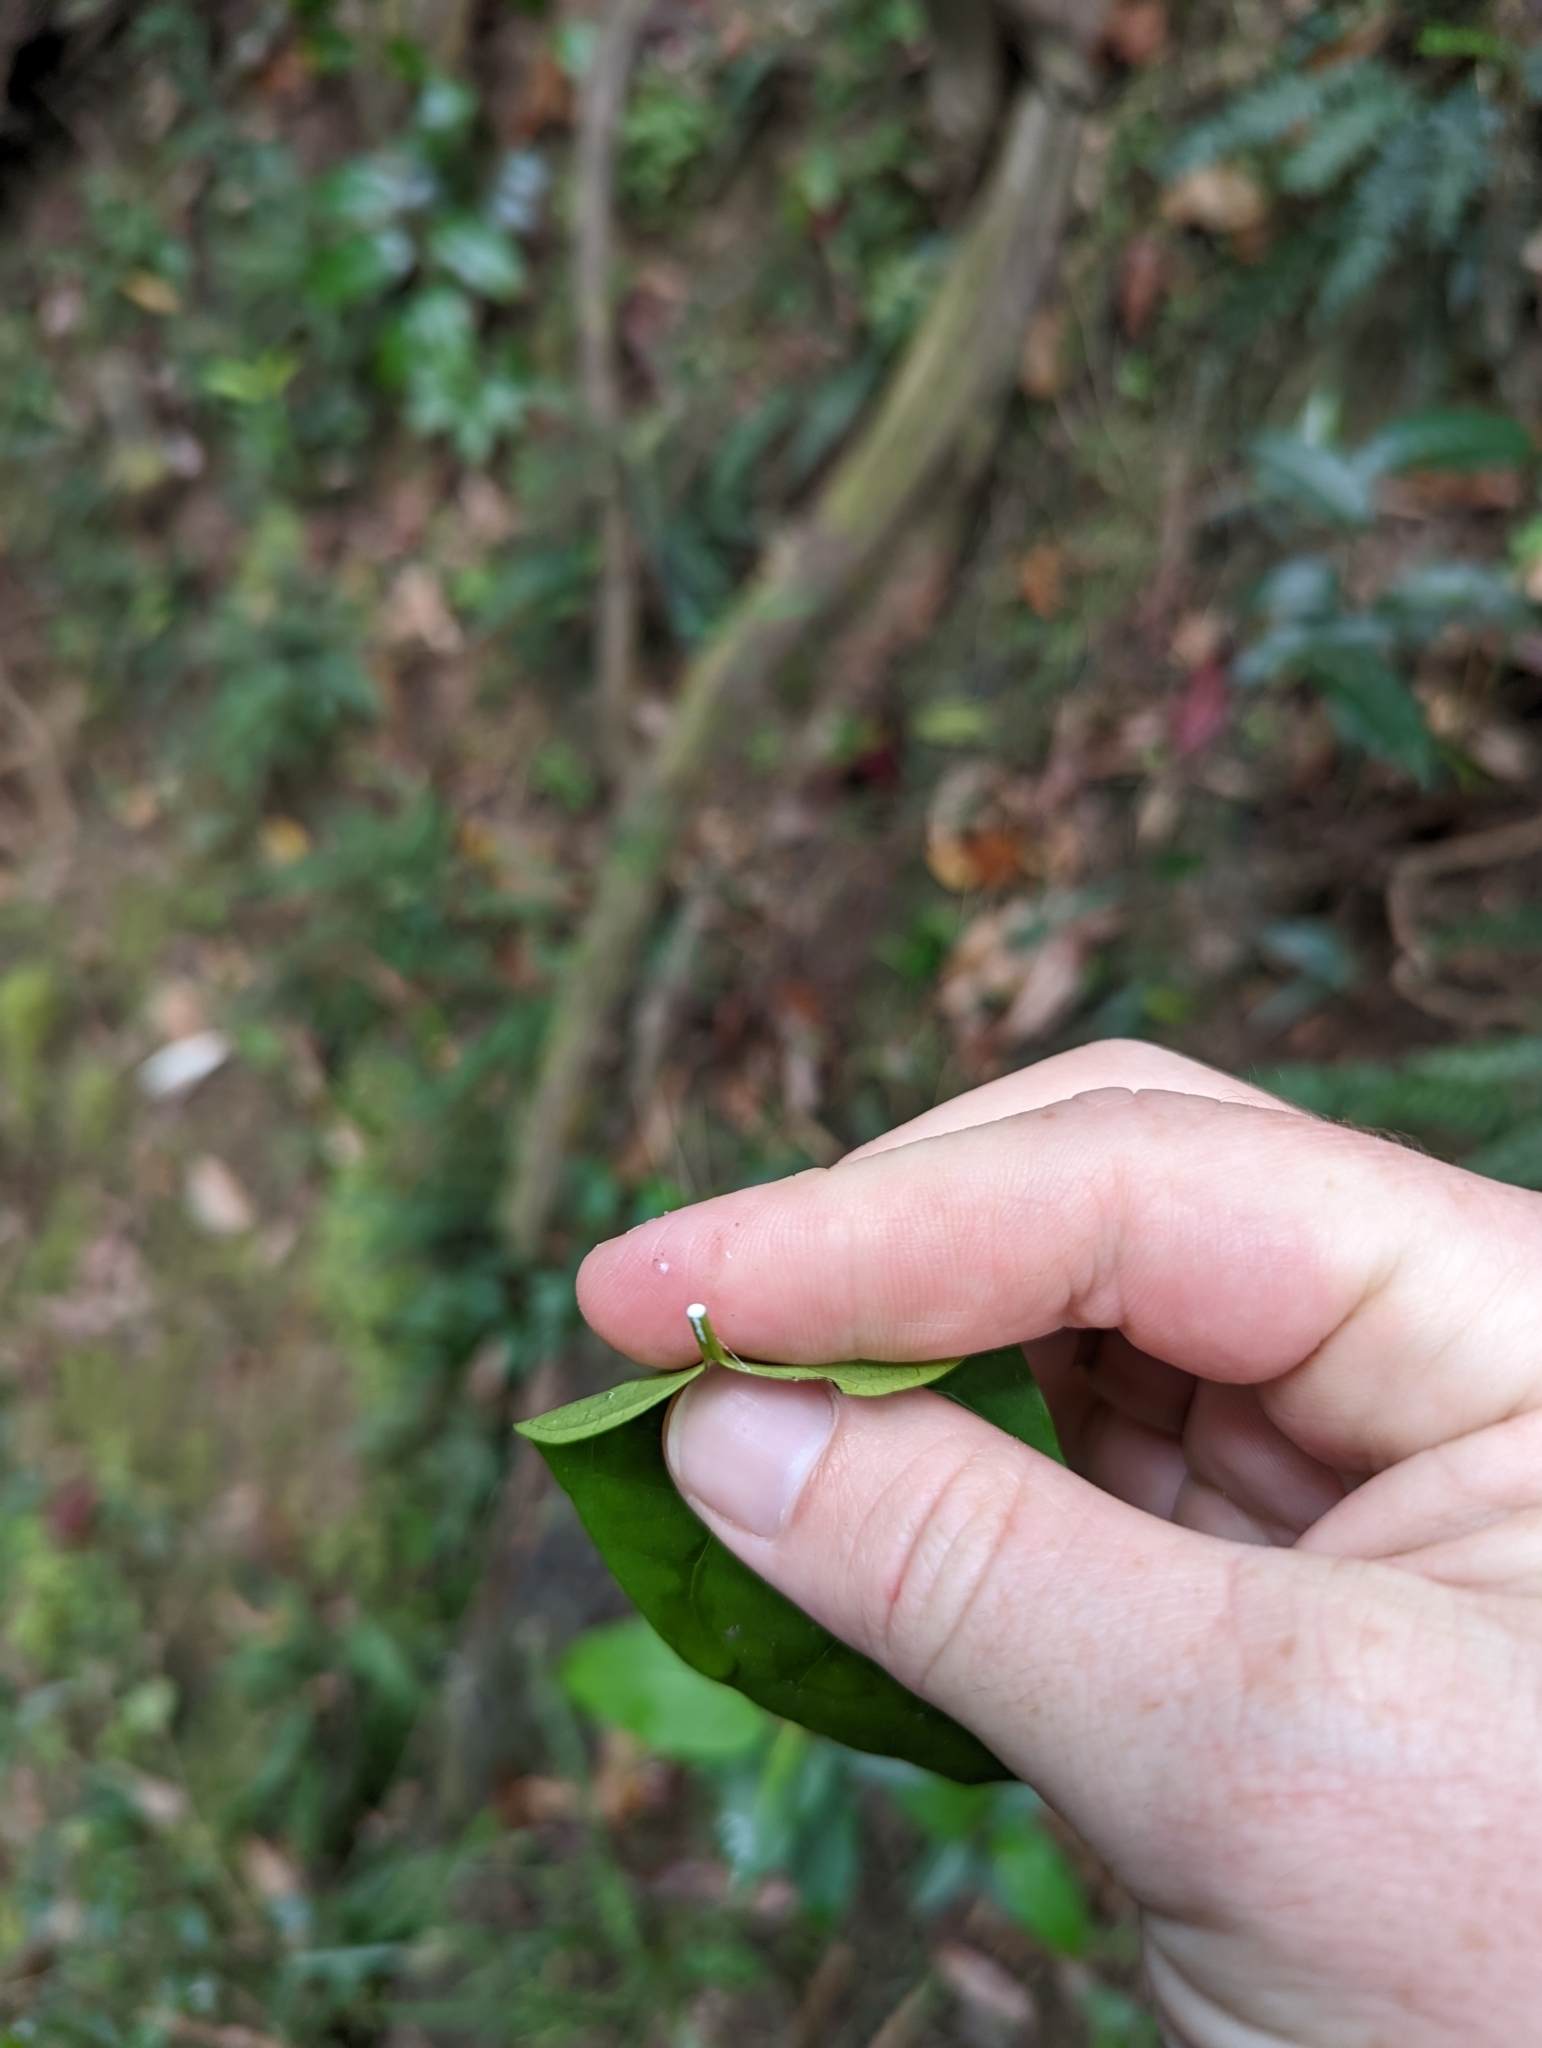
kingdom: Plantae
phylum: Tracheophyta
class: Magnoliopsida
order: Gentianales
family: Apocynaceae
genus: Leichhardtia
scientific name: Leichhardtia rostrata
